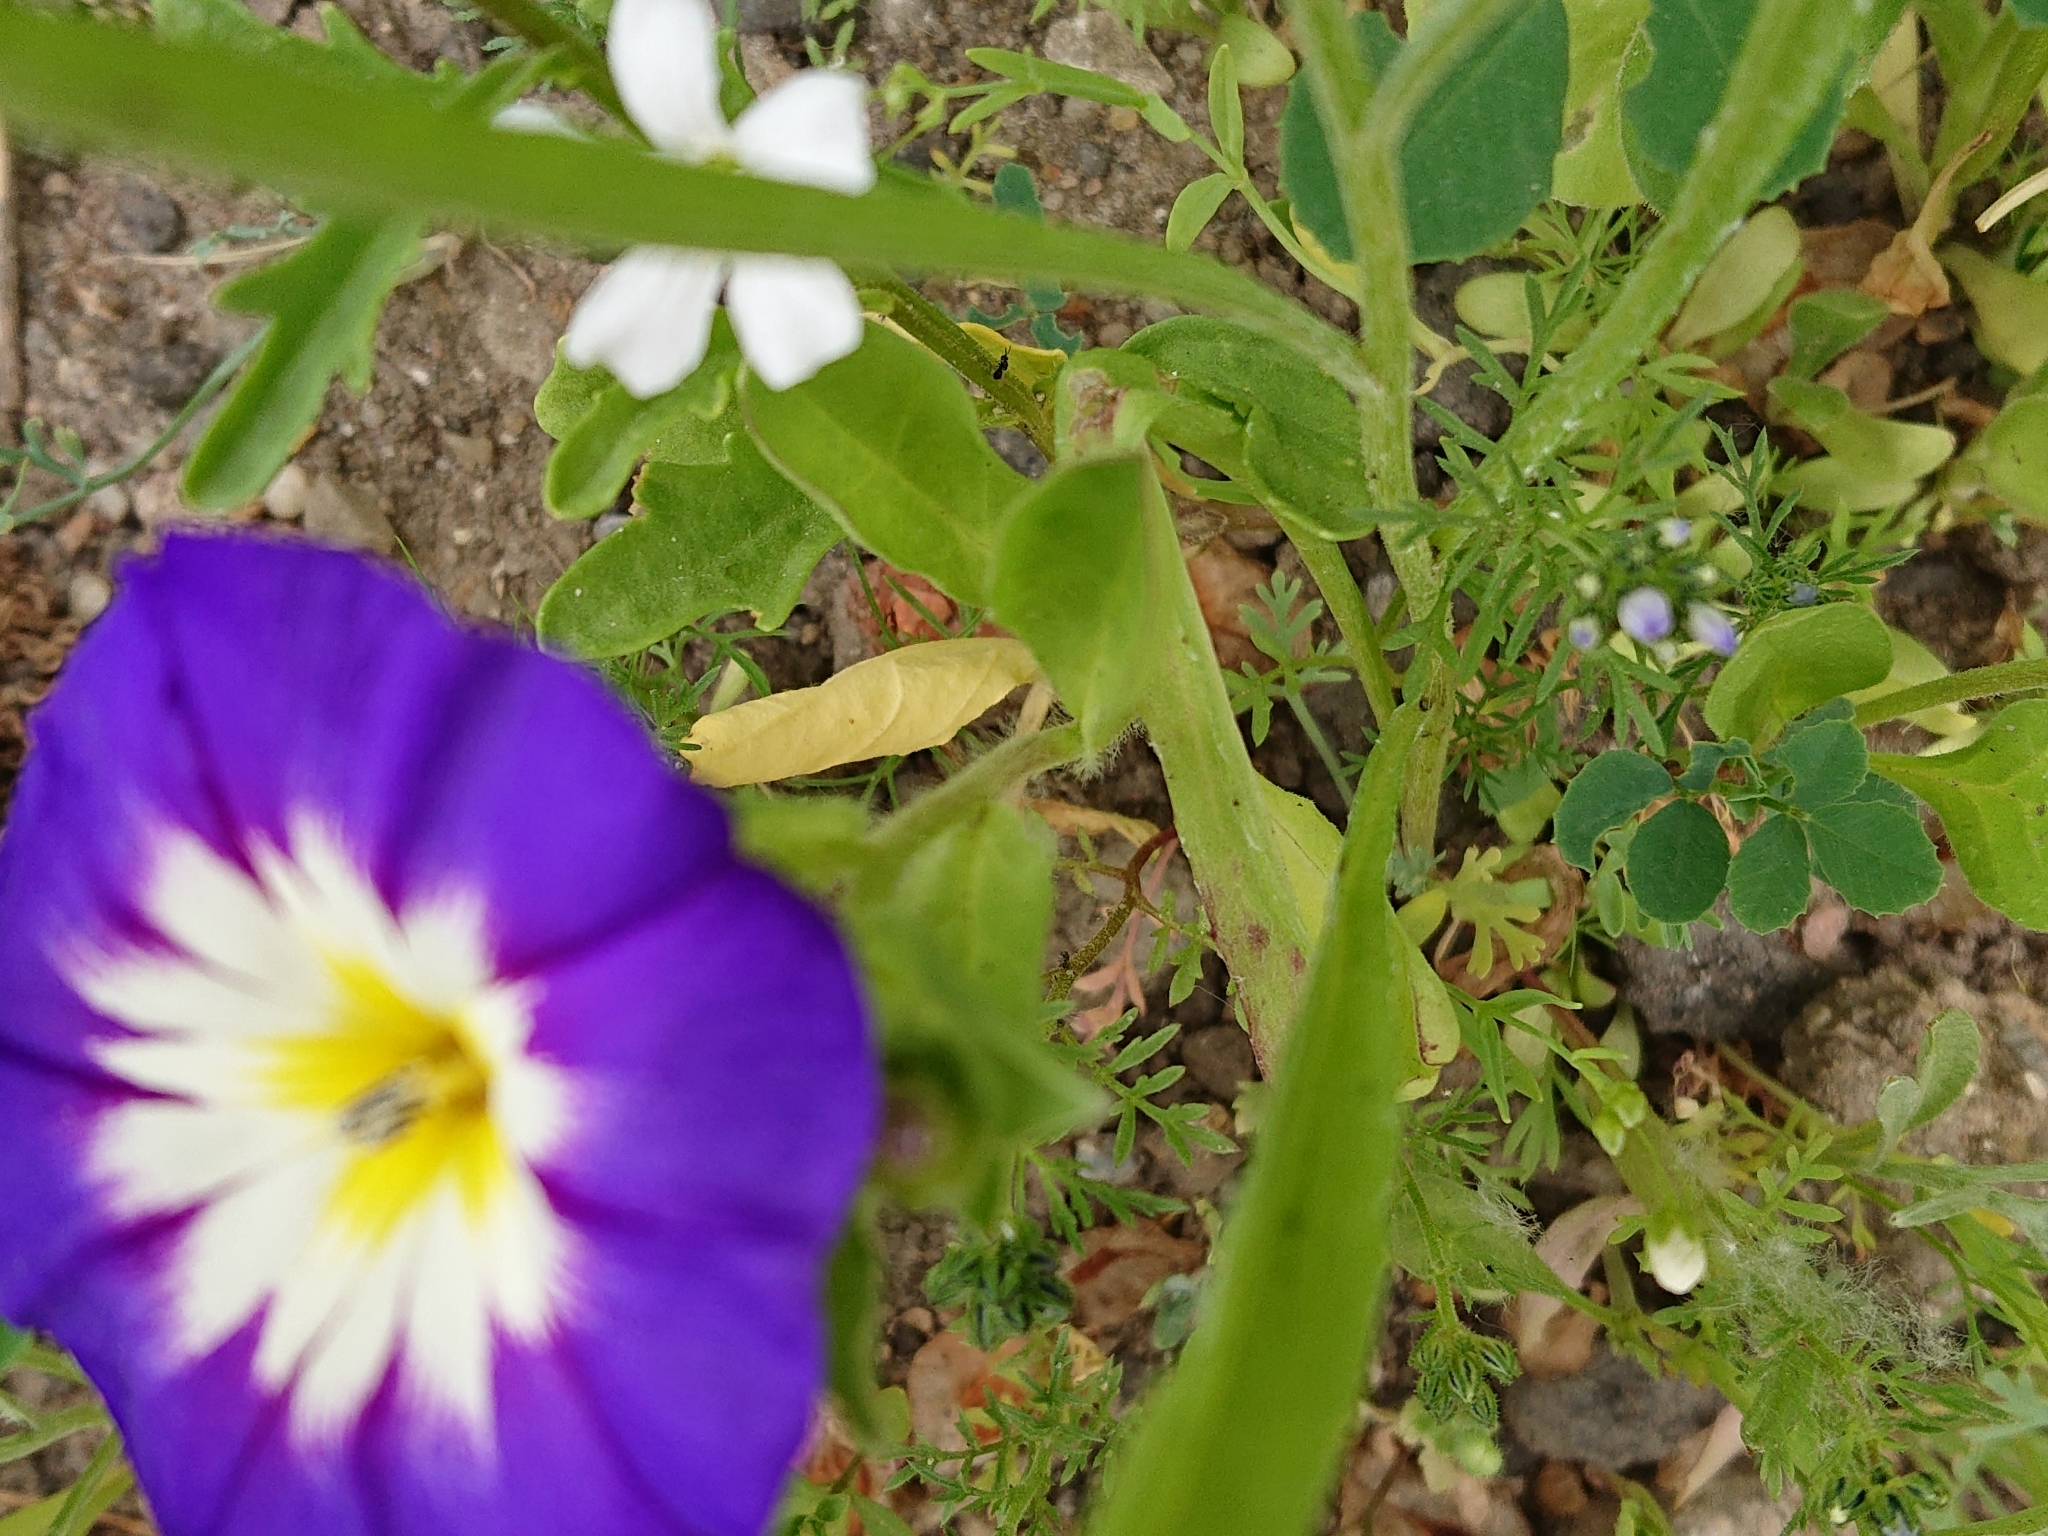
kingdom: Plantae
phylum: Tracheophyta
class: Magnoliopsida
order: Solanales
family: Convolvulaceae
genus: Convolvulus
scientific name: Convolvulus tricolor
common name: Dwarf morning-glory
